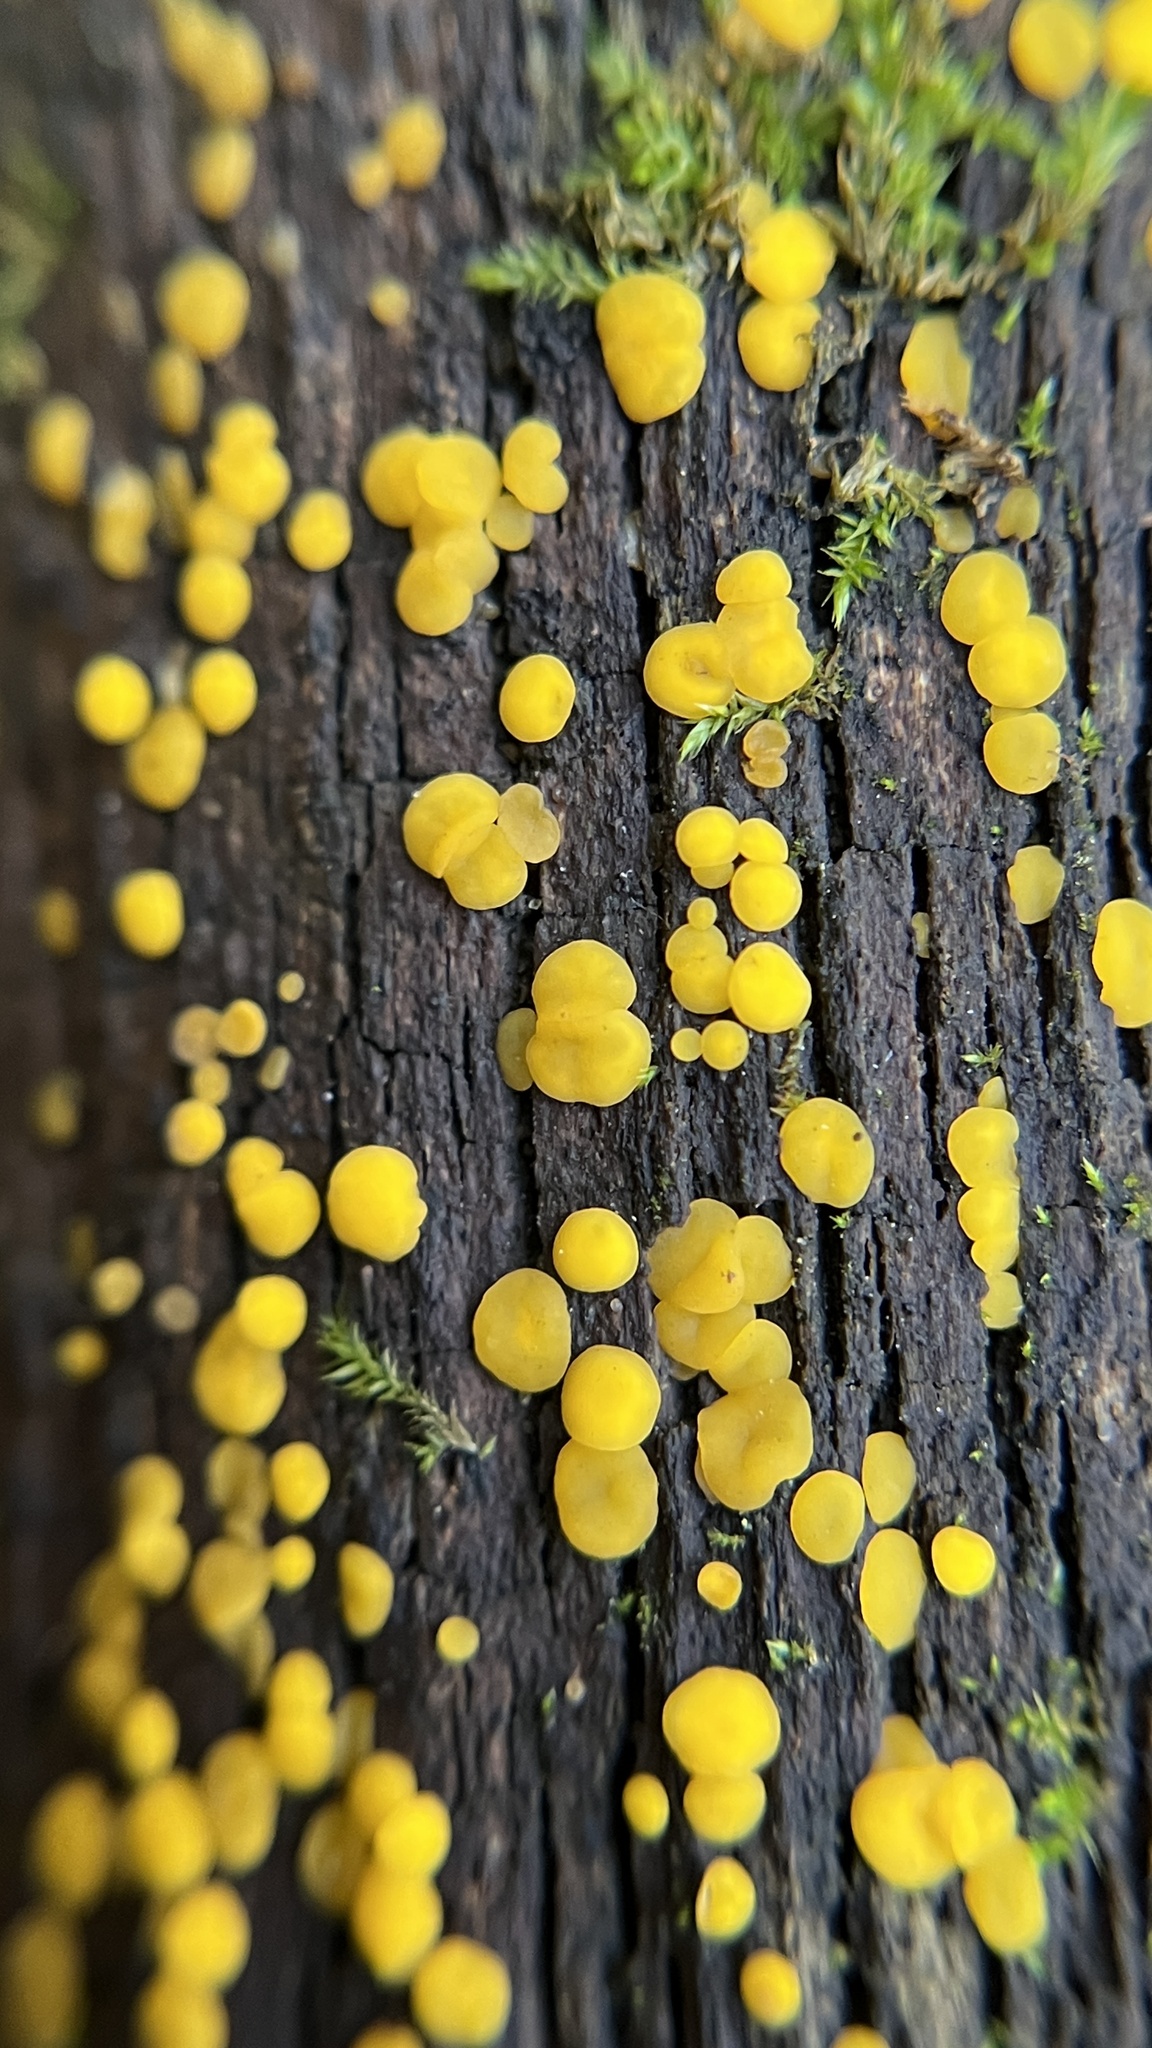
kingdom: Fungi
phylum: Ascomycota
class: Leotiomycetes
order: Helotiales
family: Pezizellaceae
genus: Calycina
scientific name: Calycina citrina
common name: Yellow fairy cups
